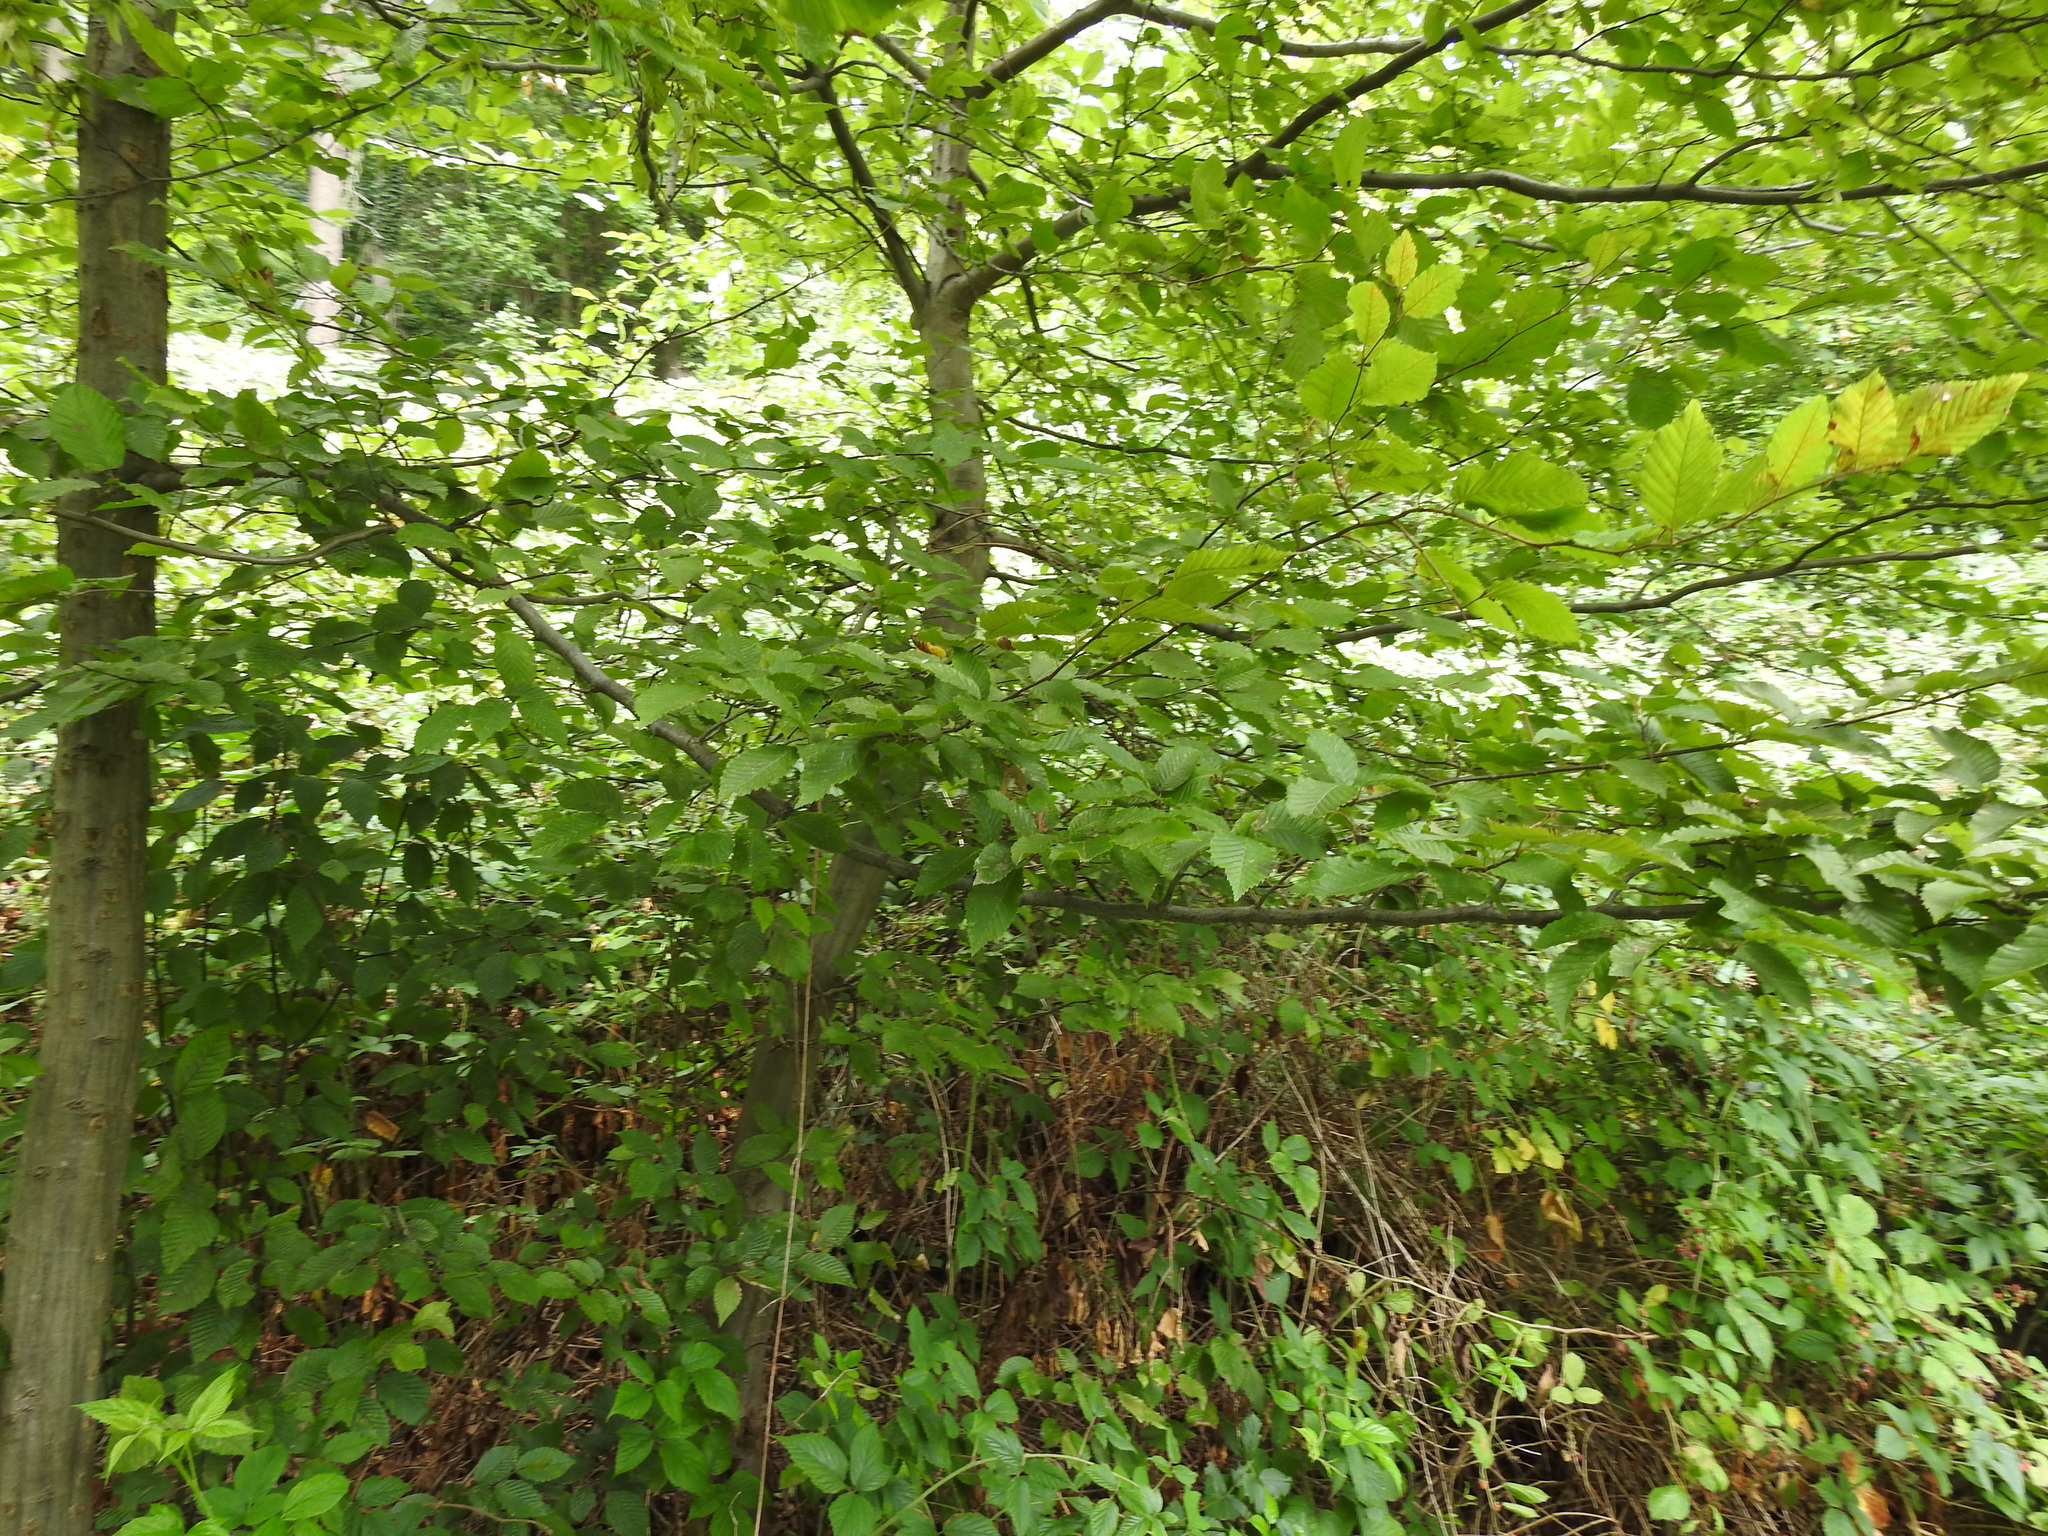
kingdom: Plantae
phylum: Tracheophyta
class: Magnoliopsida
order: Fagales
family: Fagaceae
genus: Fagus
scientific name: Fagus sylvatica
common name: Beech
